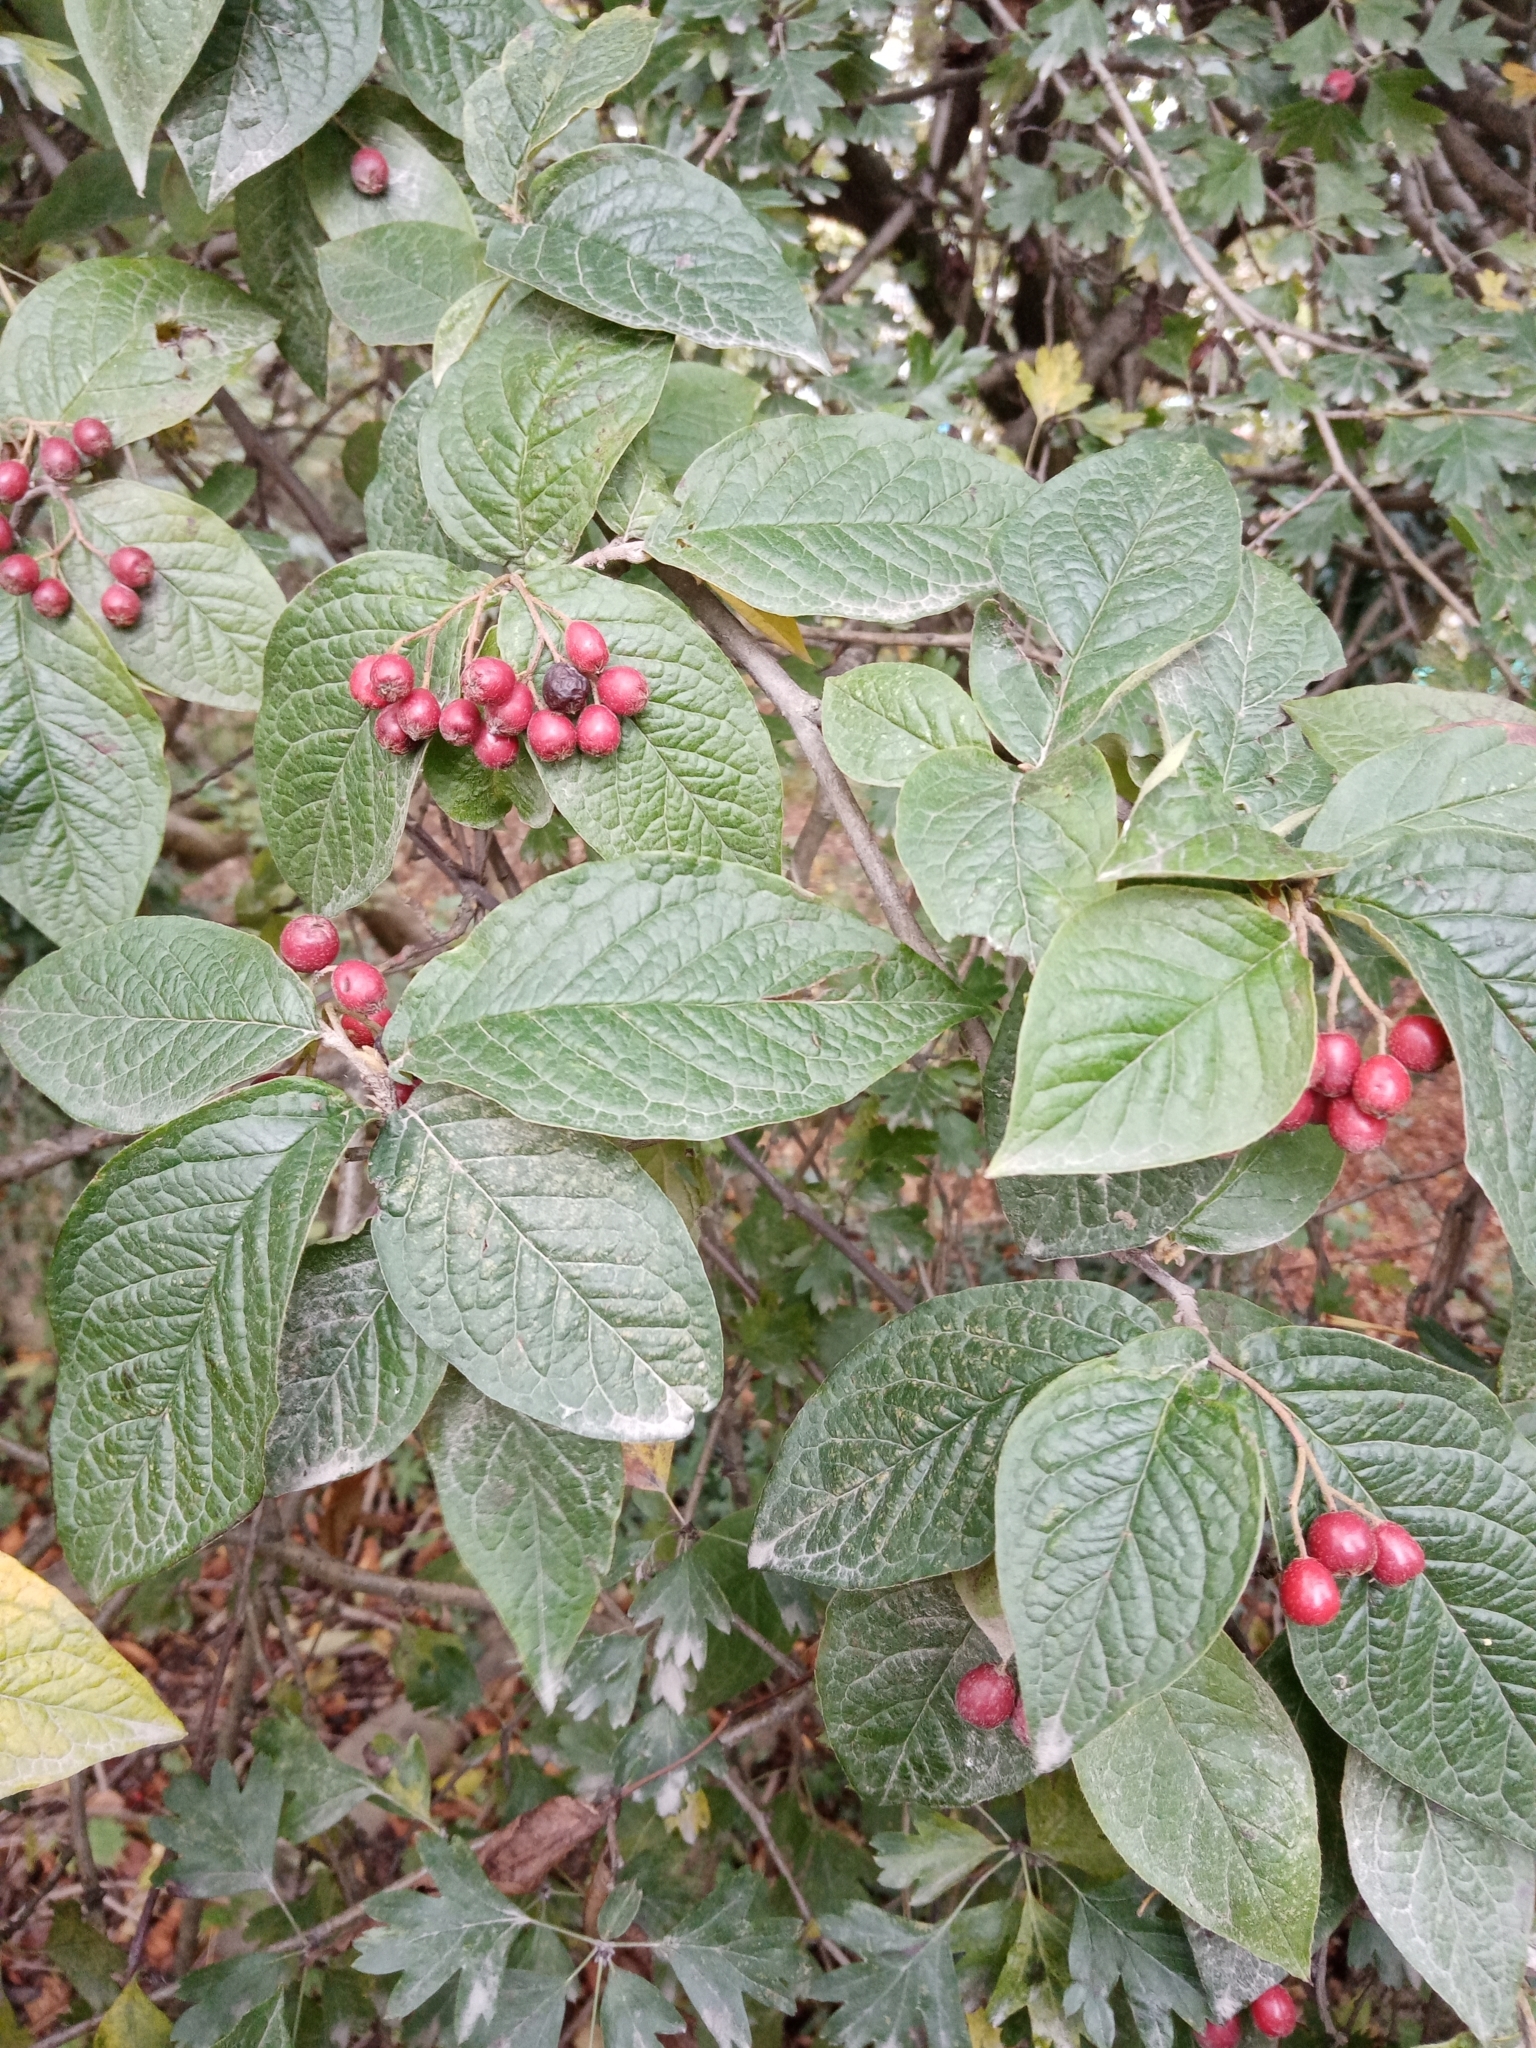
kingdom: Plantae
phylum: Tracheophyta
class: Magnoliopsida
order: Rosales
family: Rosaceae
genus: Cotoneaster
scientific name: Cotoneaster bullatus
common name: Hollyberry cotoneaster
